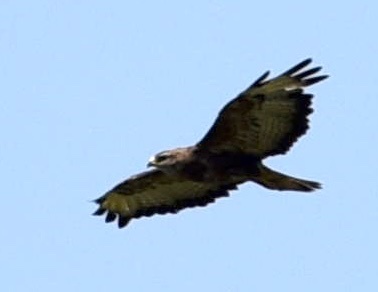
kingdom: Animalia
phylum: Chordata
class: Aves
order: Accipitriformes
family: Accipitridae
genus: Buteo
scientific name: Buteo buteo
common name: Common buzzard
